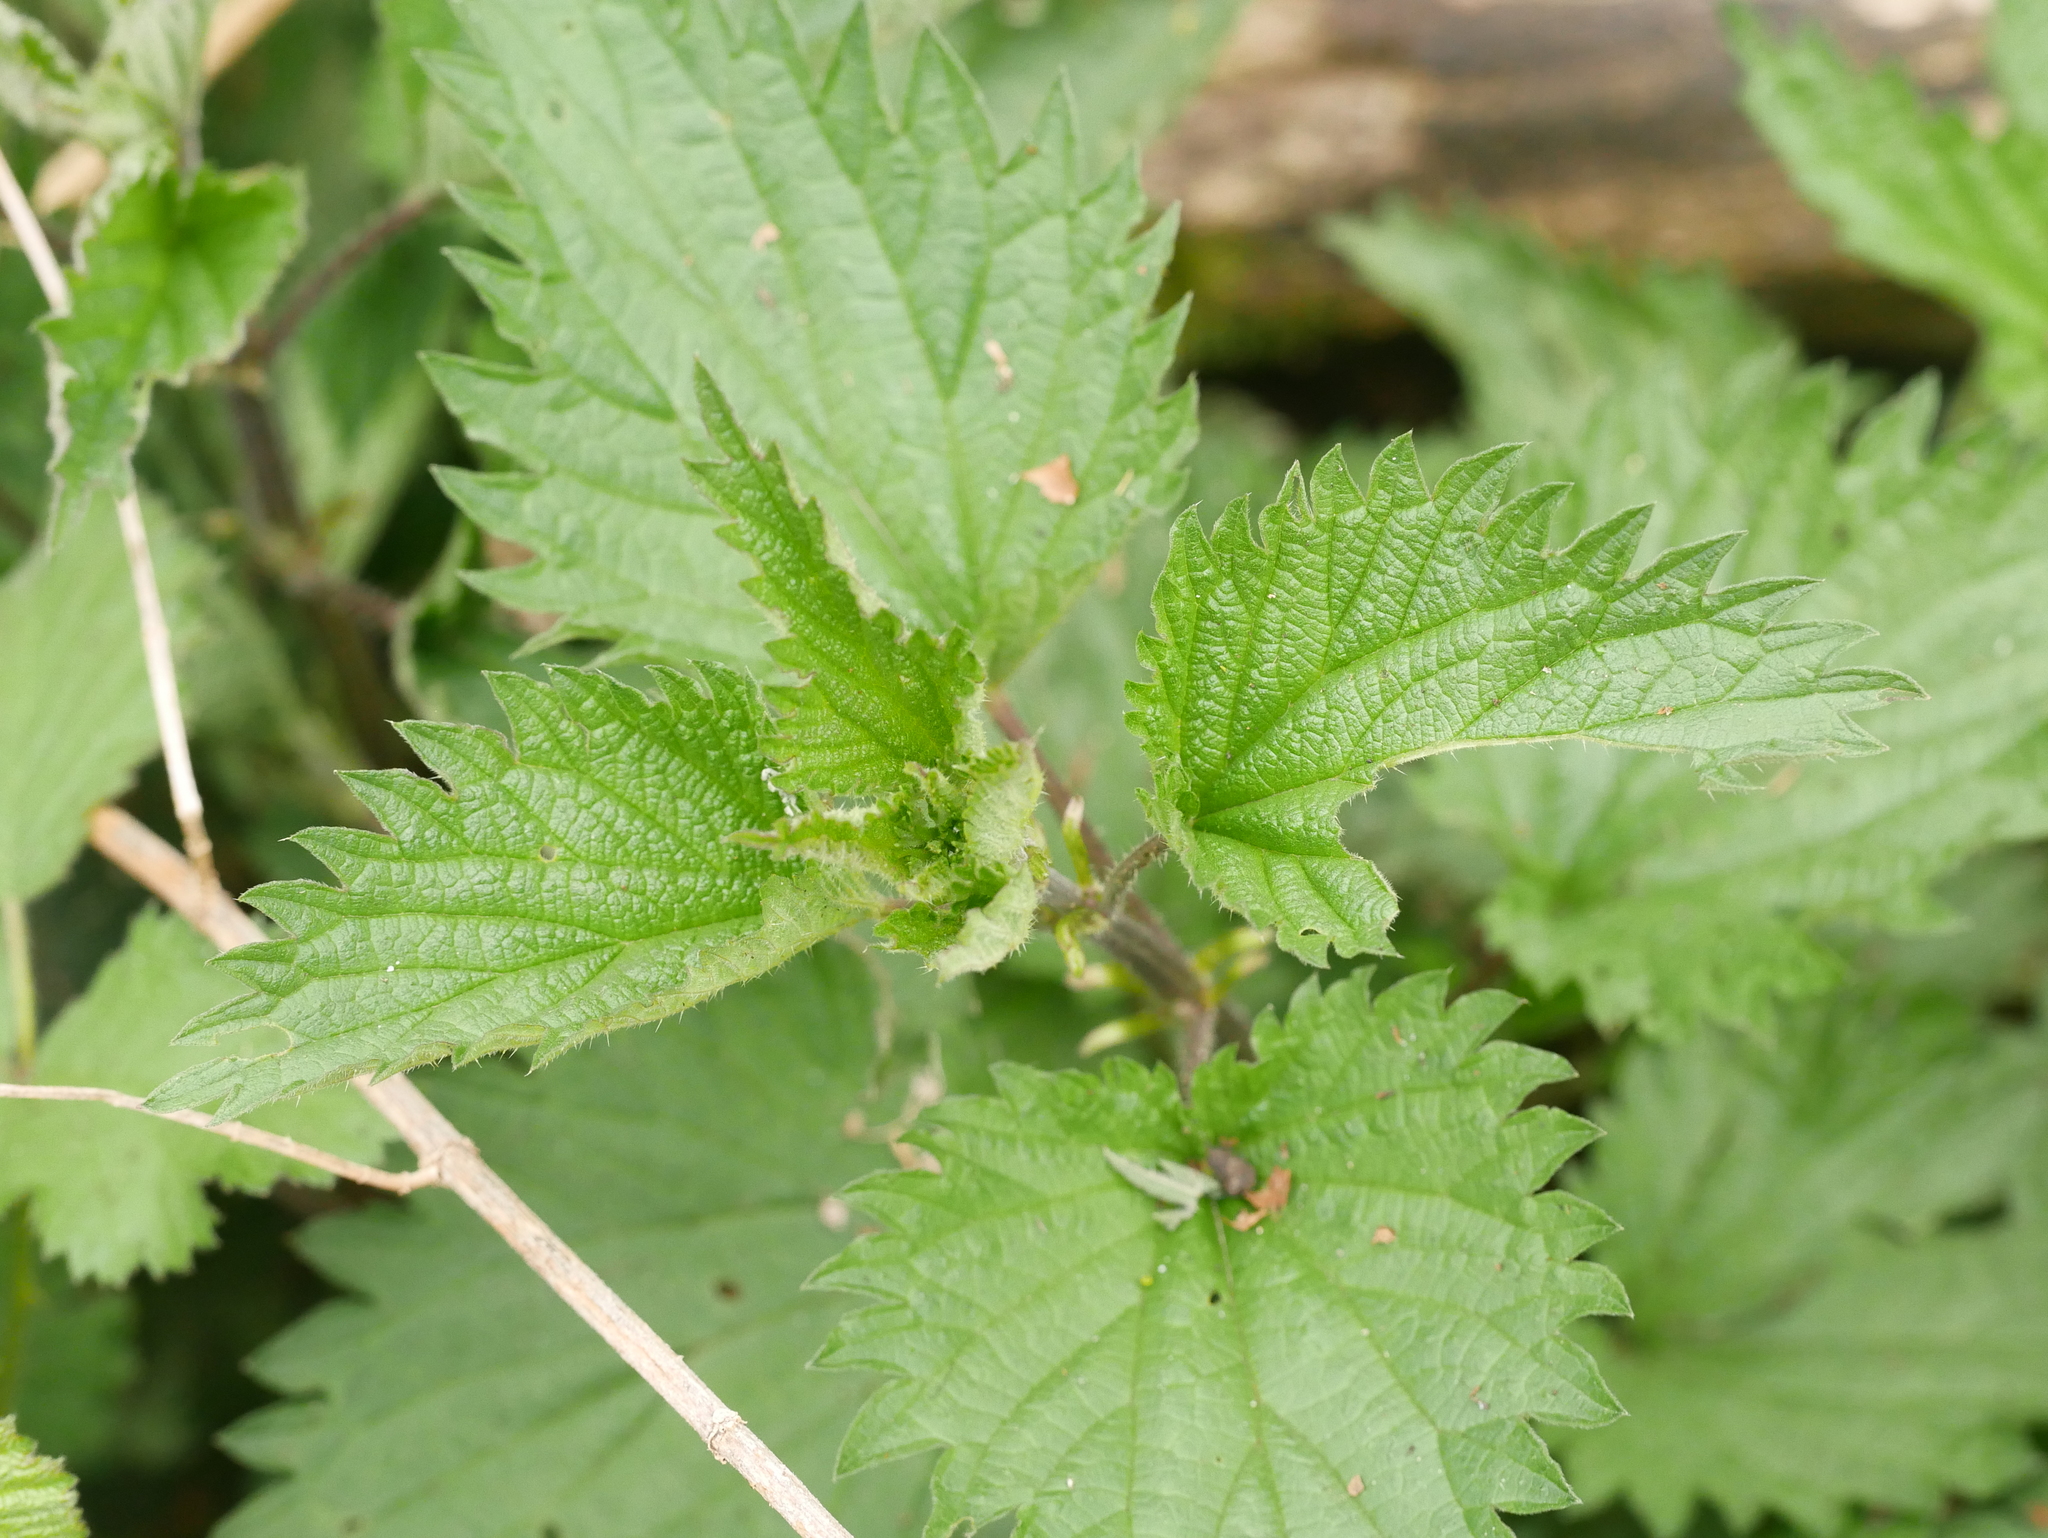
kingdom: Plantae
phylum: Tracheophyta
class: Magnoliopsida
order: Rosales
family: Urticaceae
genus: Urtica
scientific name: Urtica dioica
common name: Common nettle
